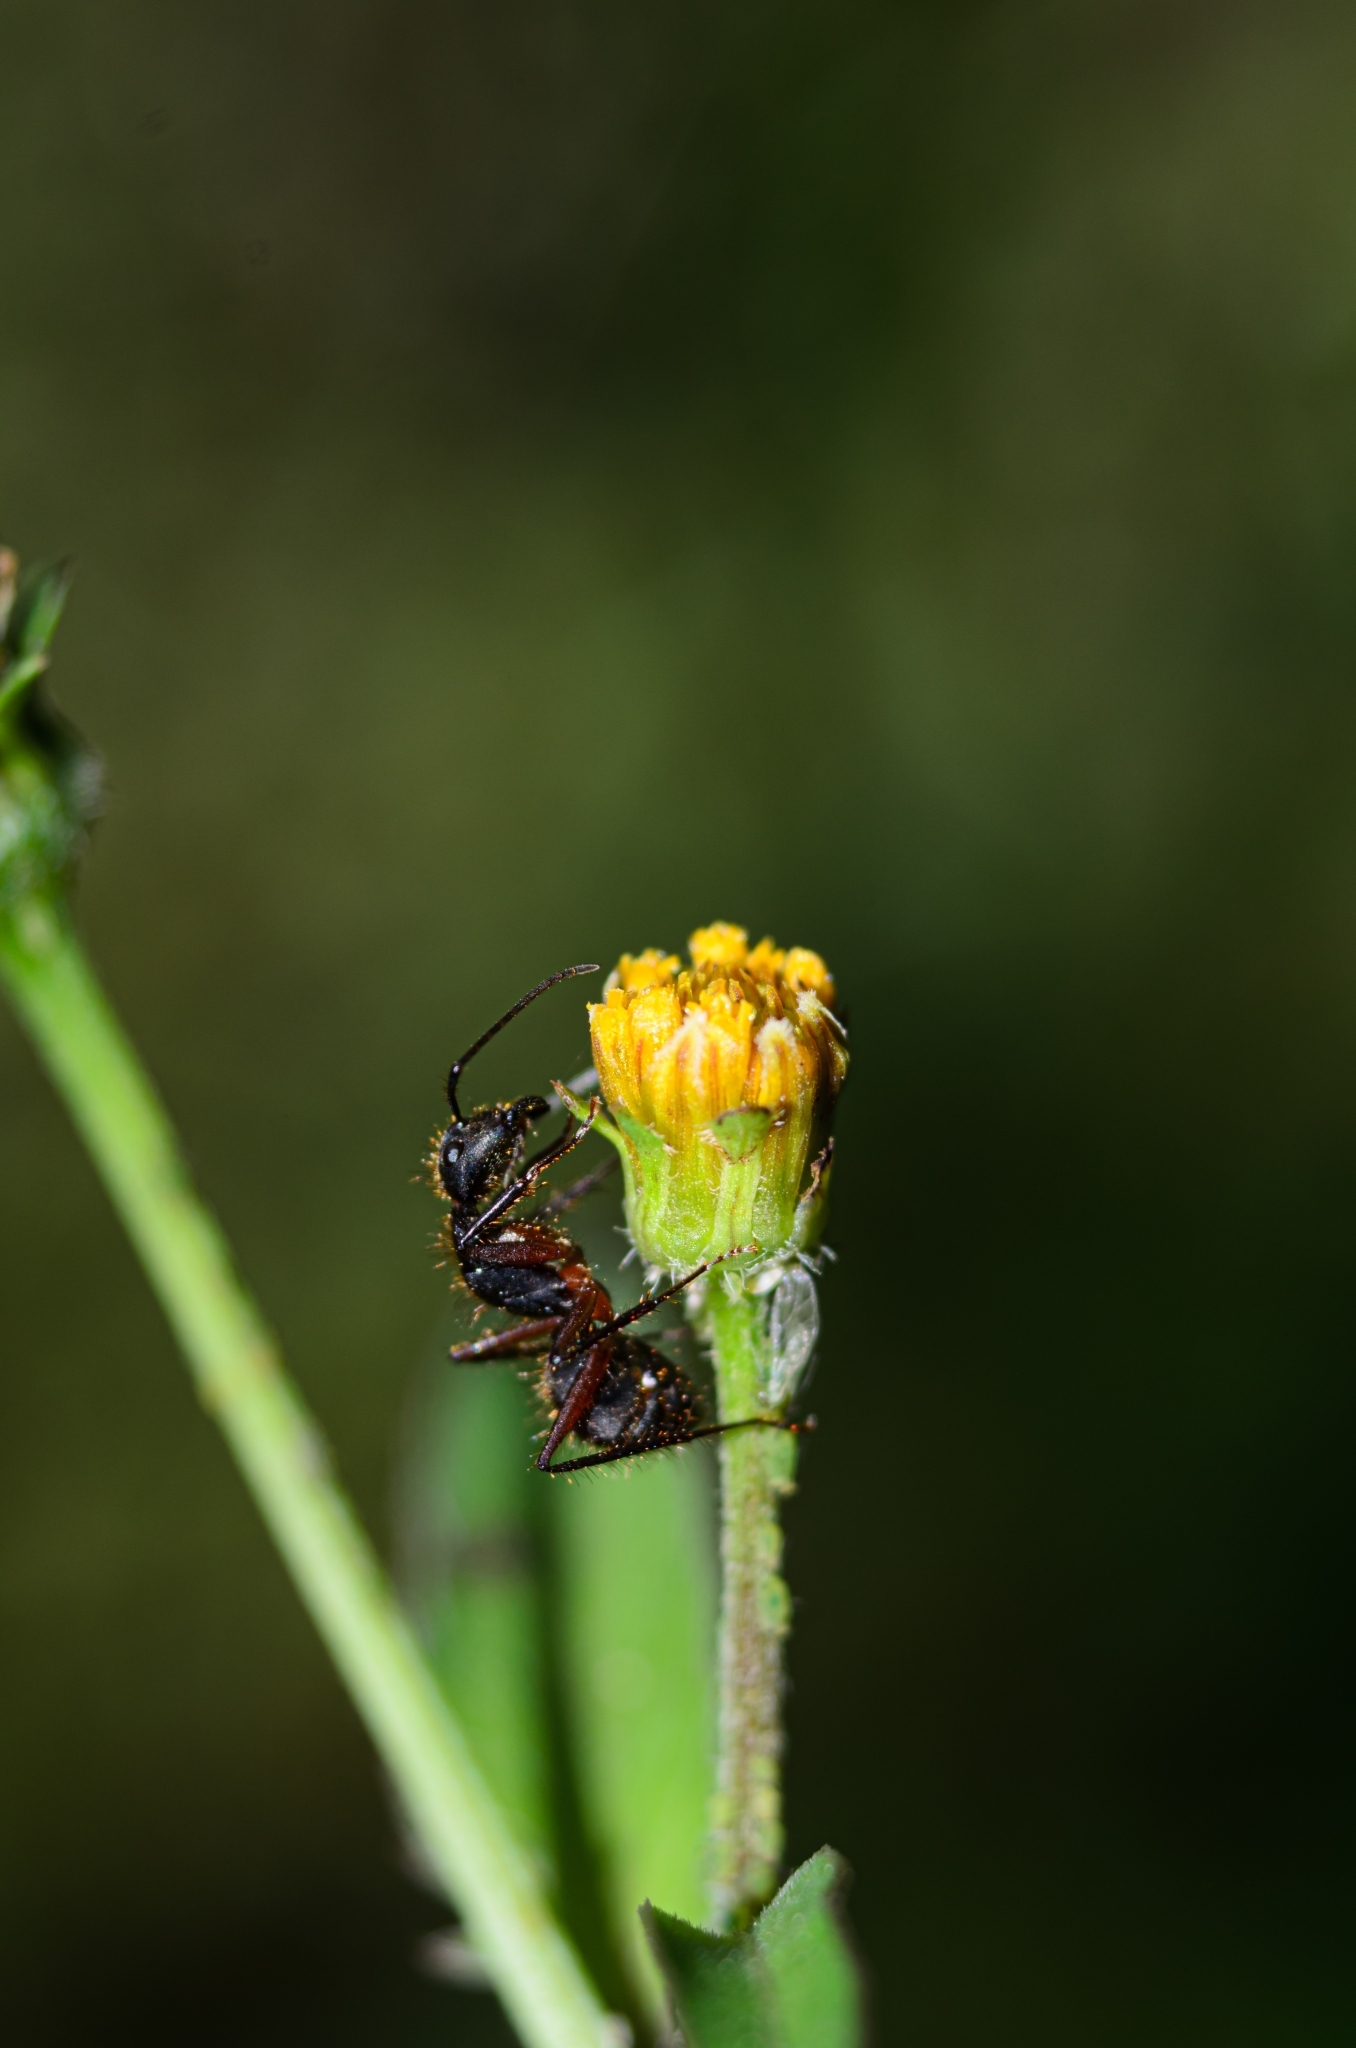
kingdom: Animalia
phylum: Arthropoda
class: Insecta
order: Hymenoptera
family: Formicidae
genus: Camponotus
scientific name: Camponotus rufipes
